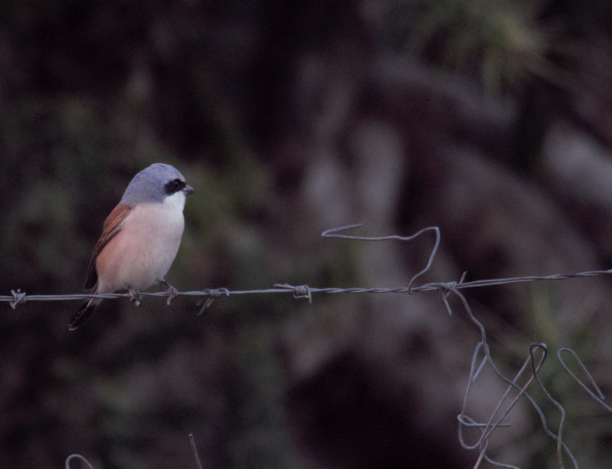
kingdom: Animalia
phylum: Chordata
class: Aves
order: Passeriformes
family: Laniidae
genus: Lanius
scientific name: Lanius collurio
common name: Red-backed shrike
